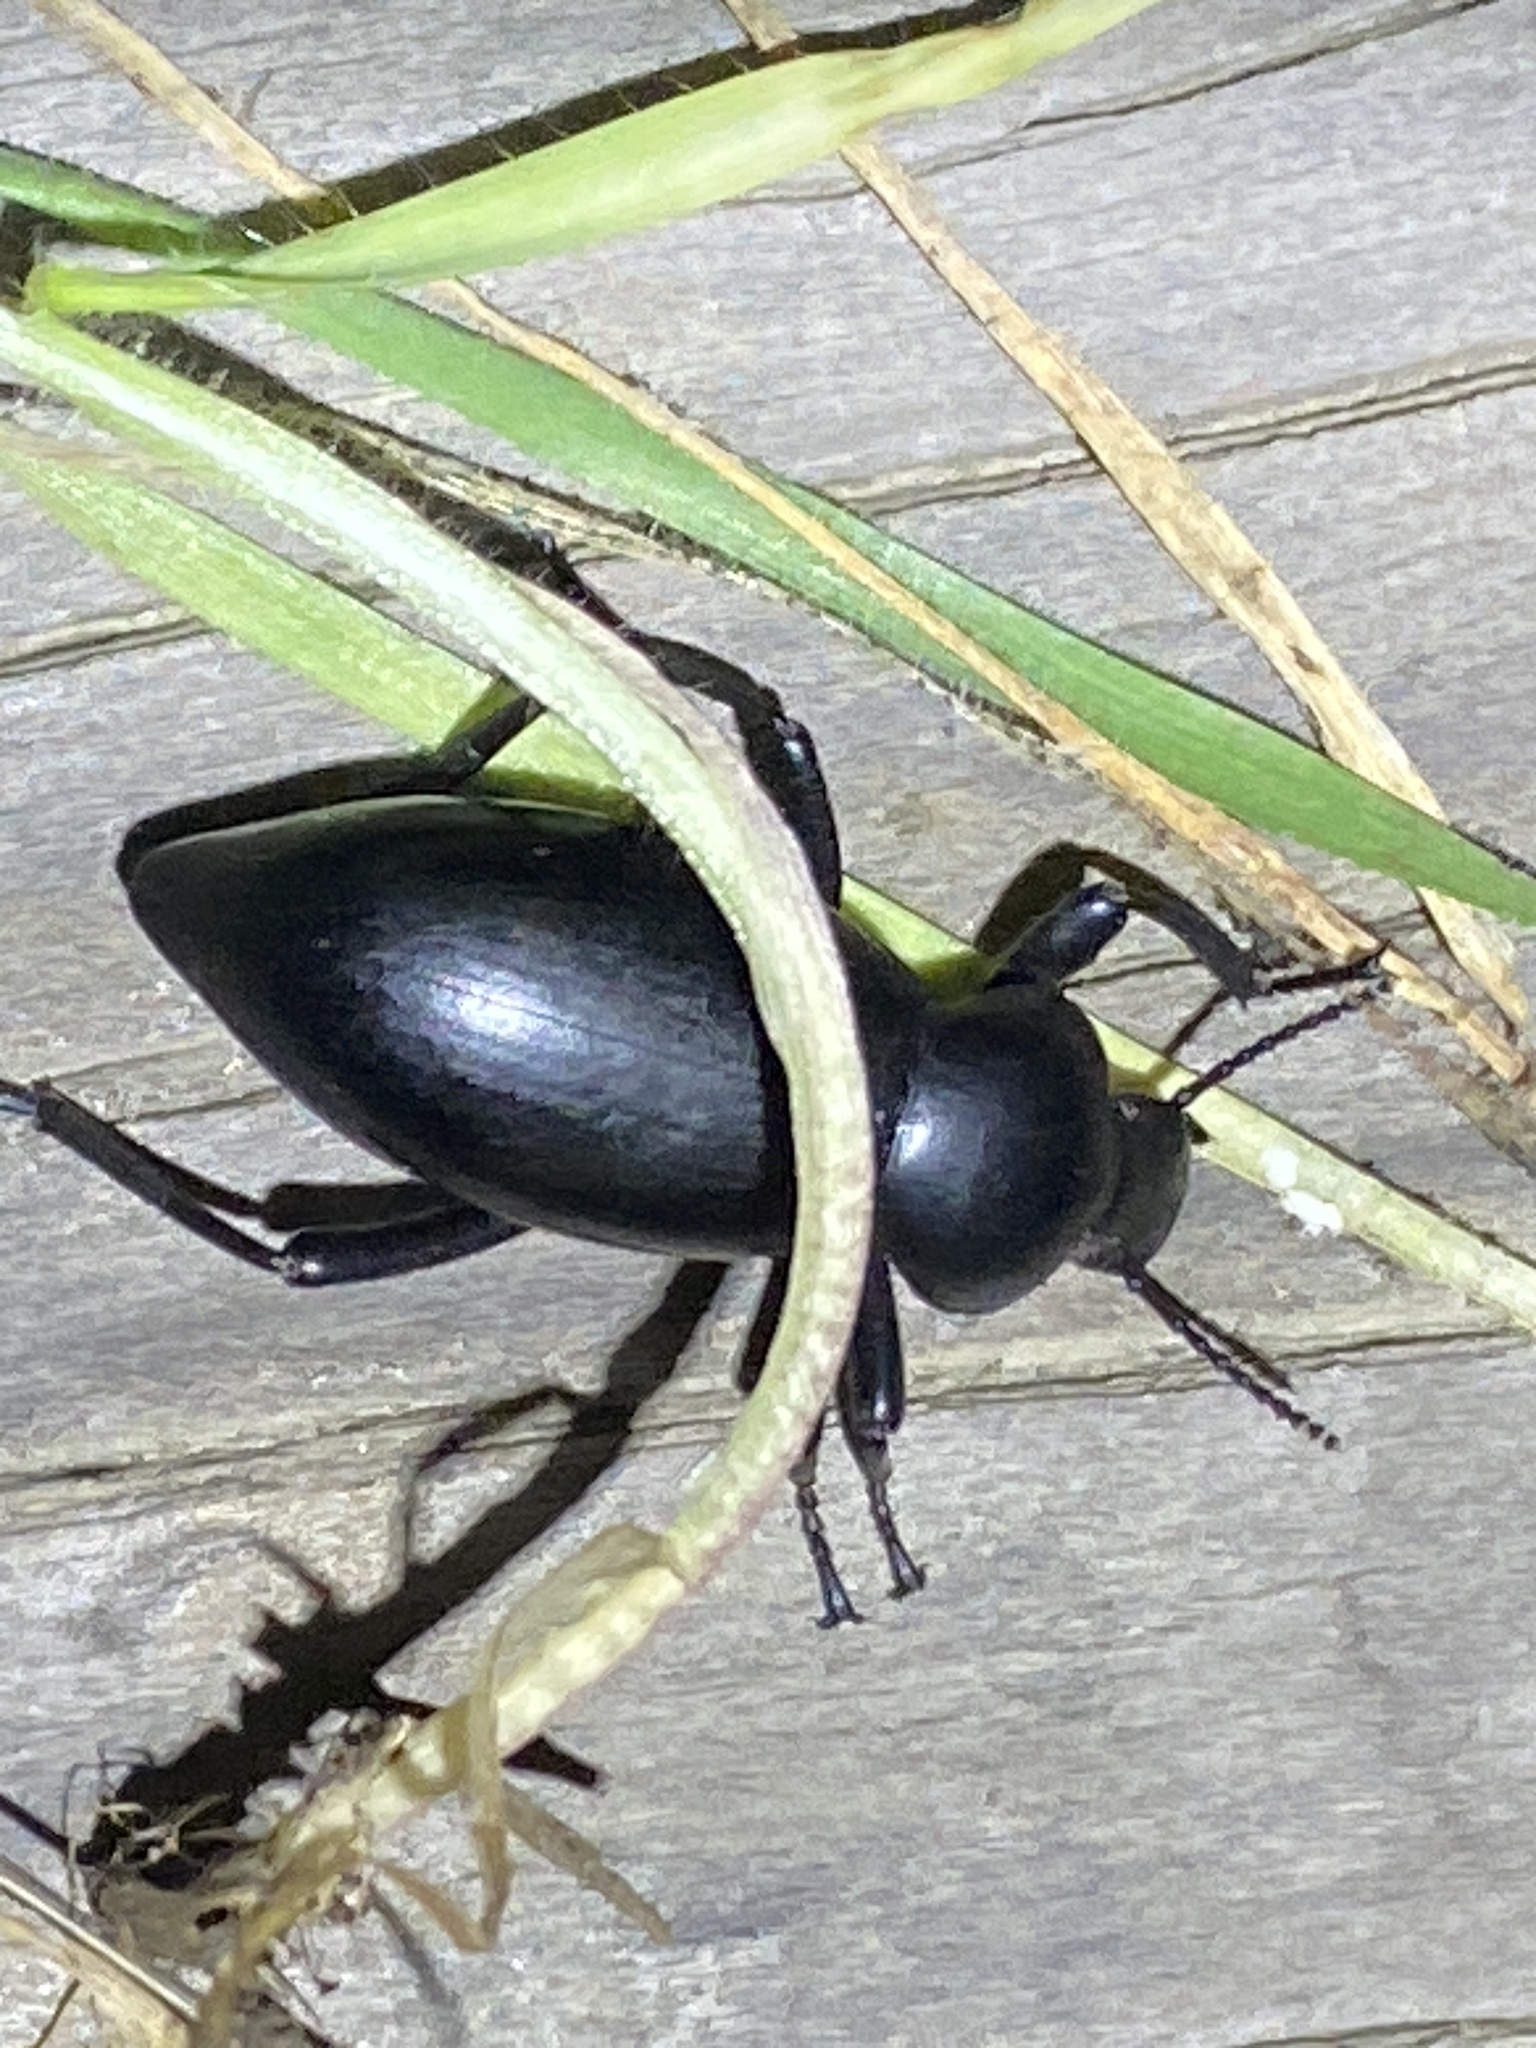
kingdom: Animalia
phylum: Arthropoda
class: Insecta
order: Coleoptera
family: Tenebrionidae
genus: Eleodes
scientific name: Eleodes dentipes
